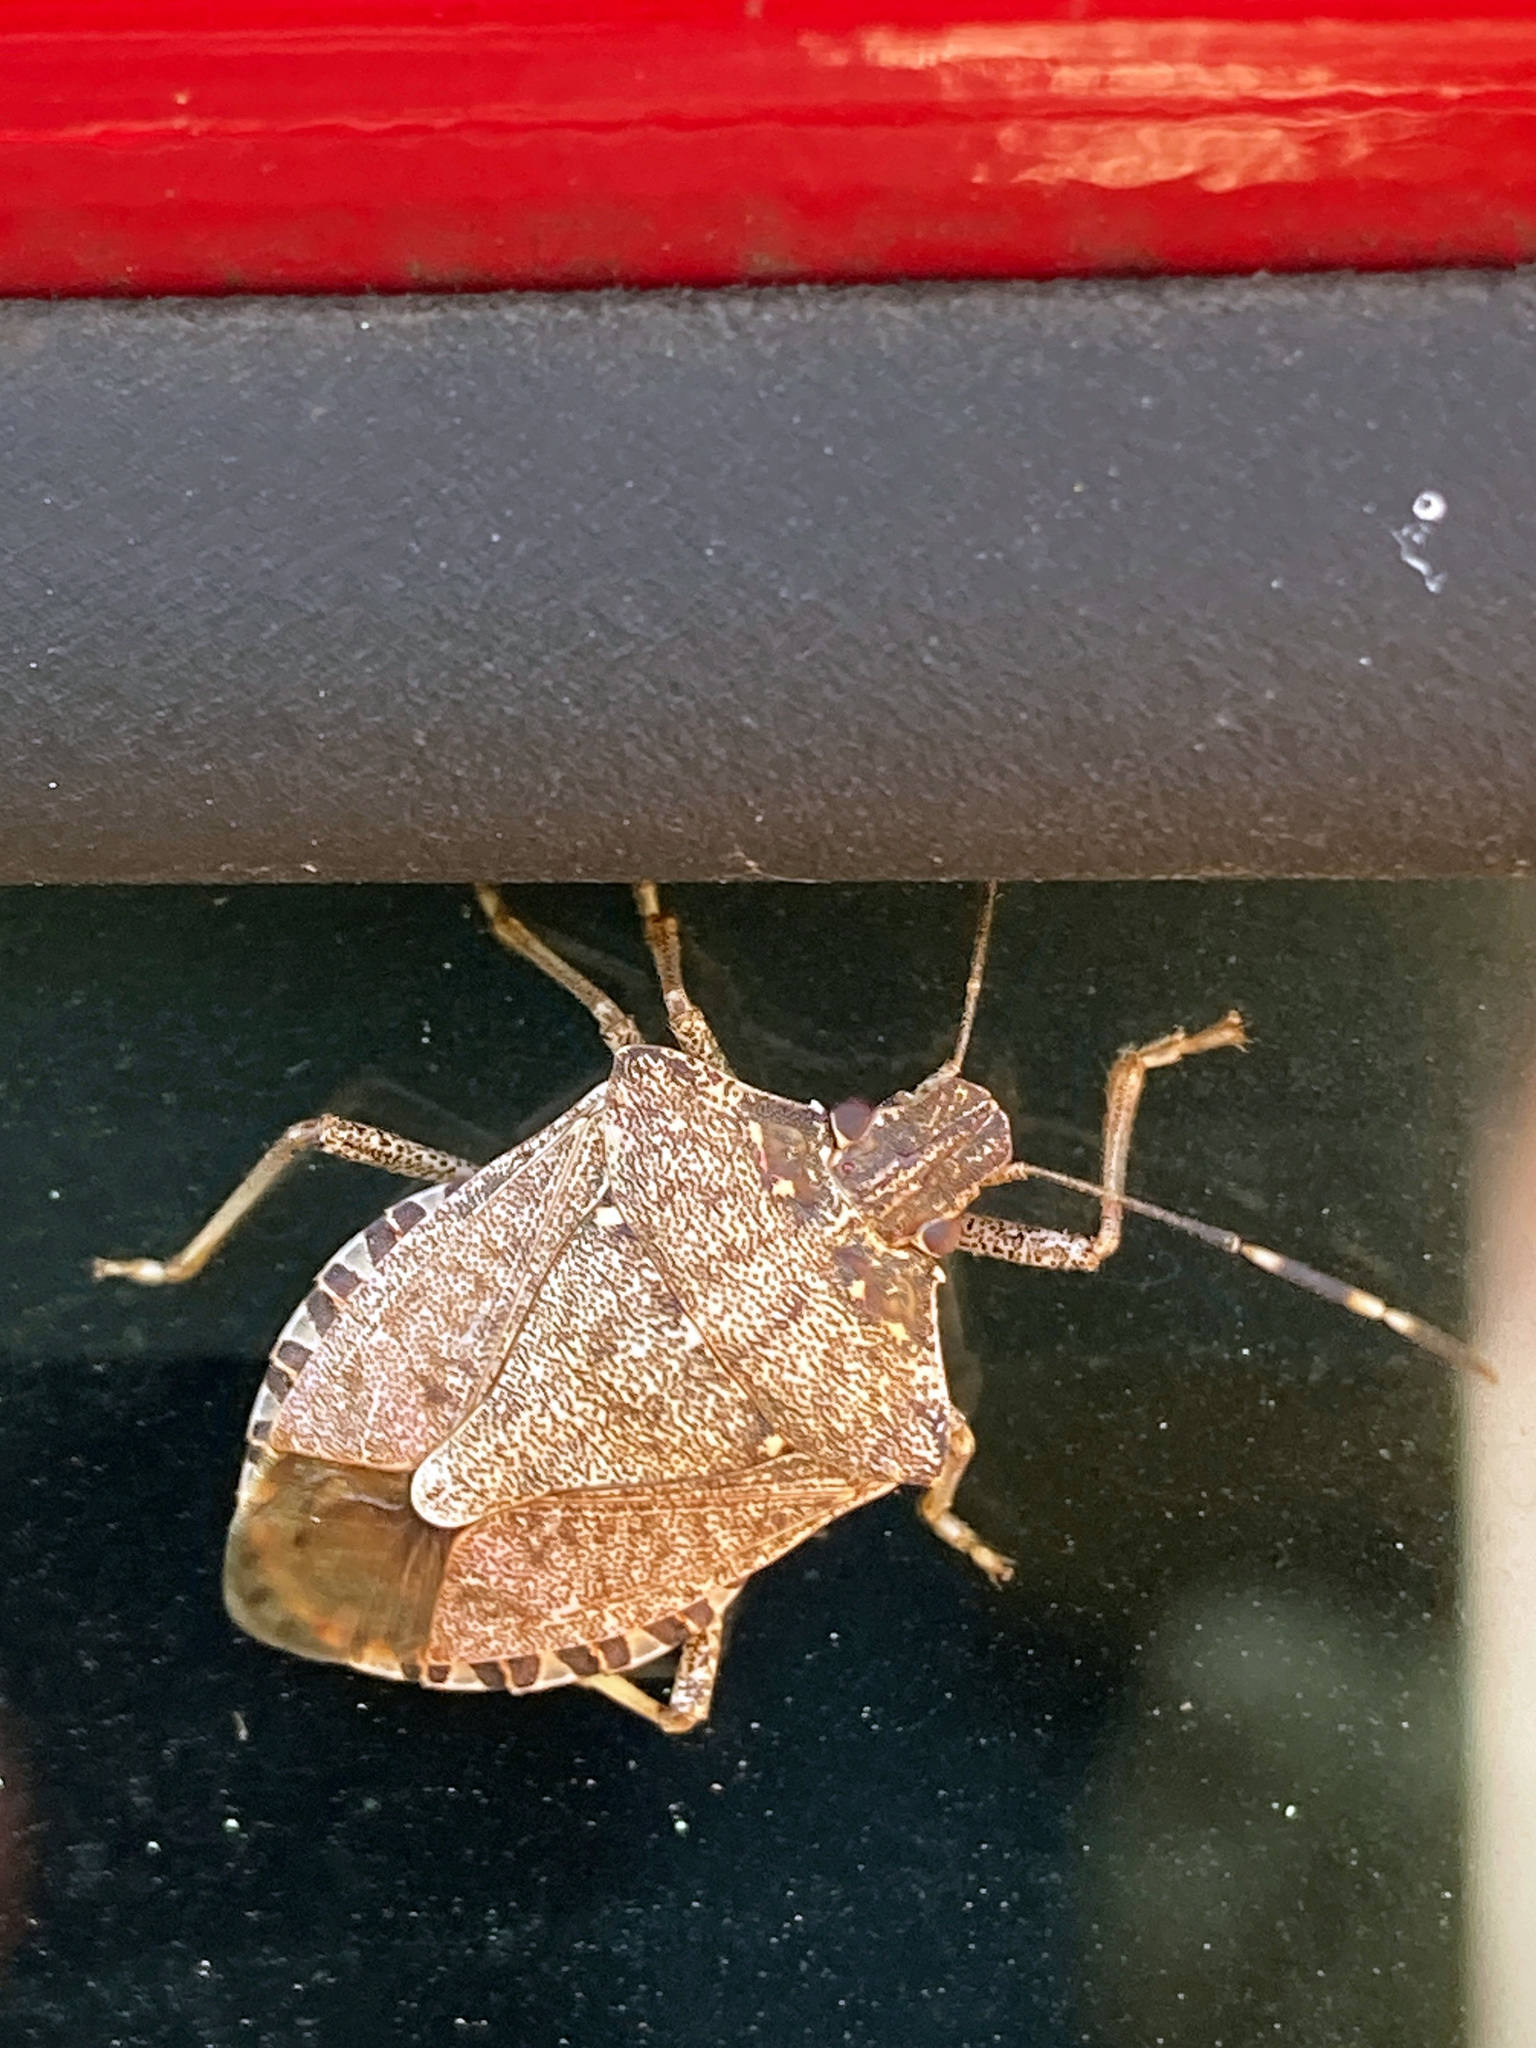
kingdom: Animalia
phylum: Arthropoda
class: Insecta
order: Hemiptera
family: Pentatomidae
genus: Halyomorpha
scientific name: Halyomorpha halys
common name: Brown marmorated stink bug
